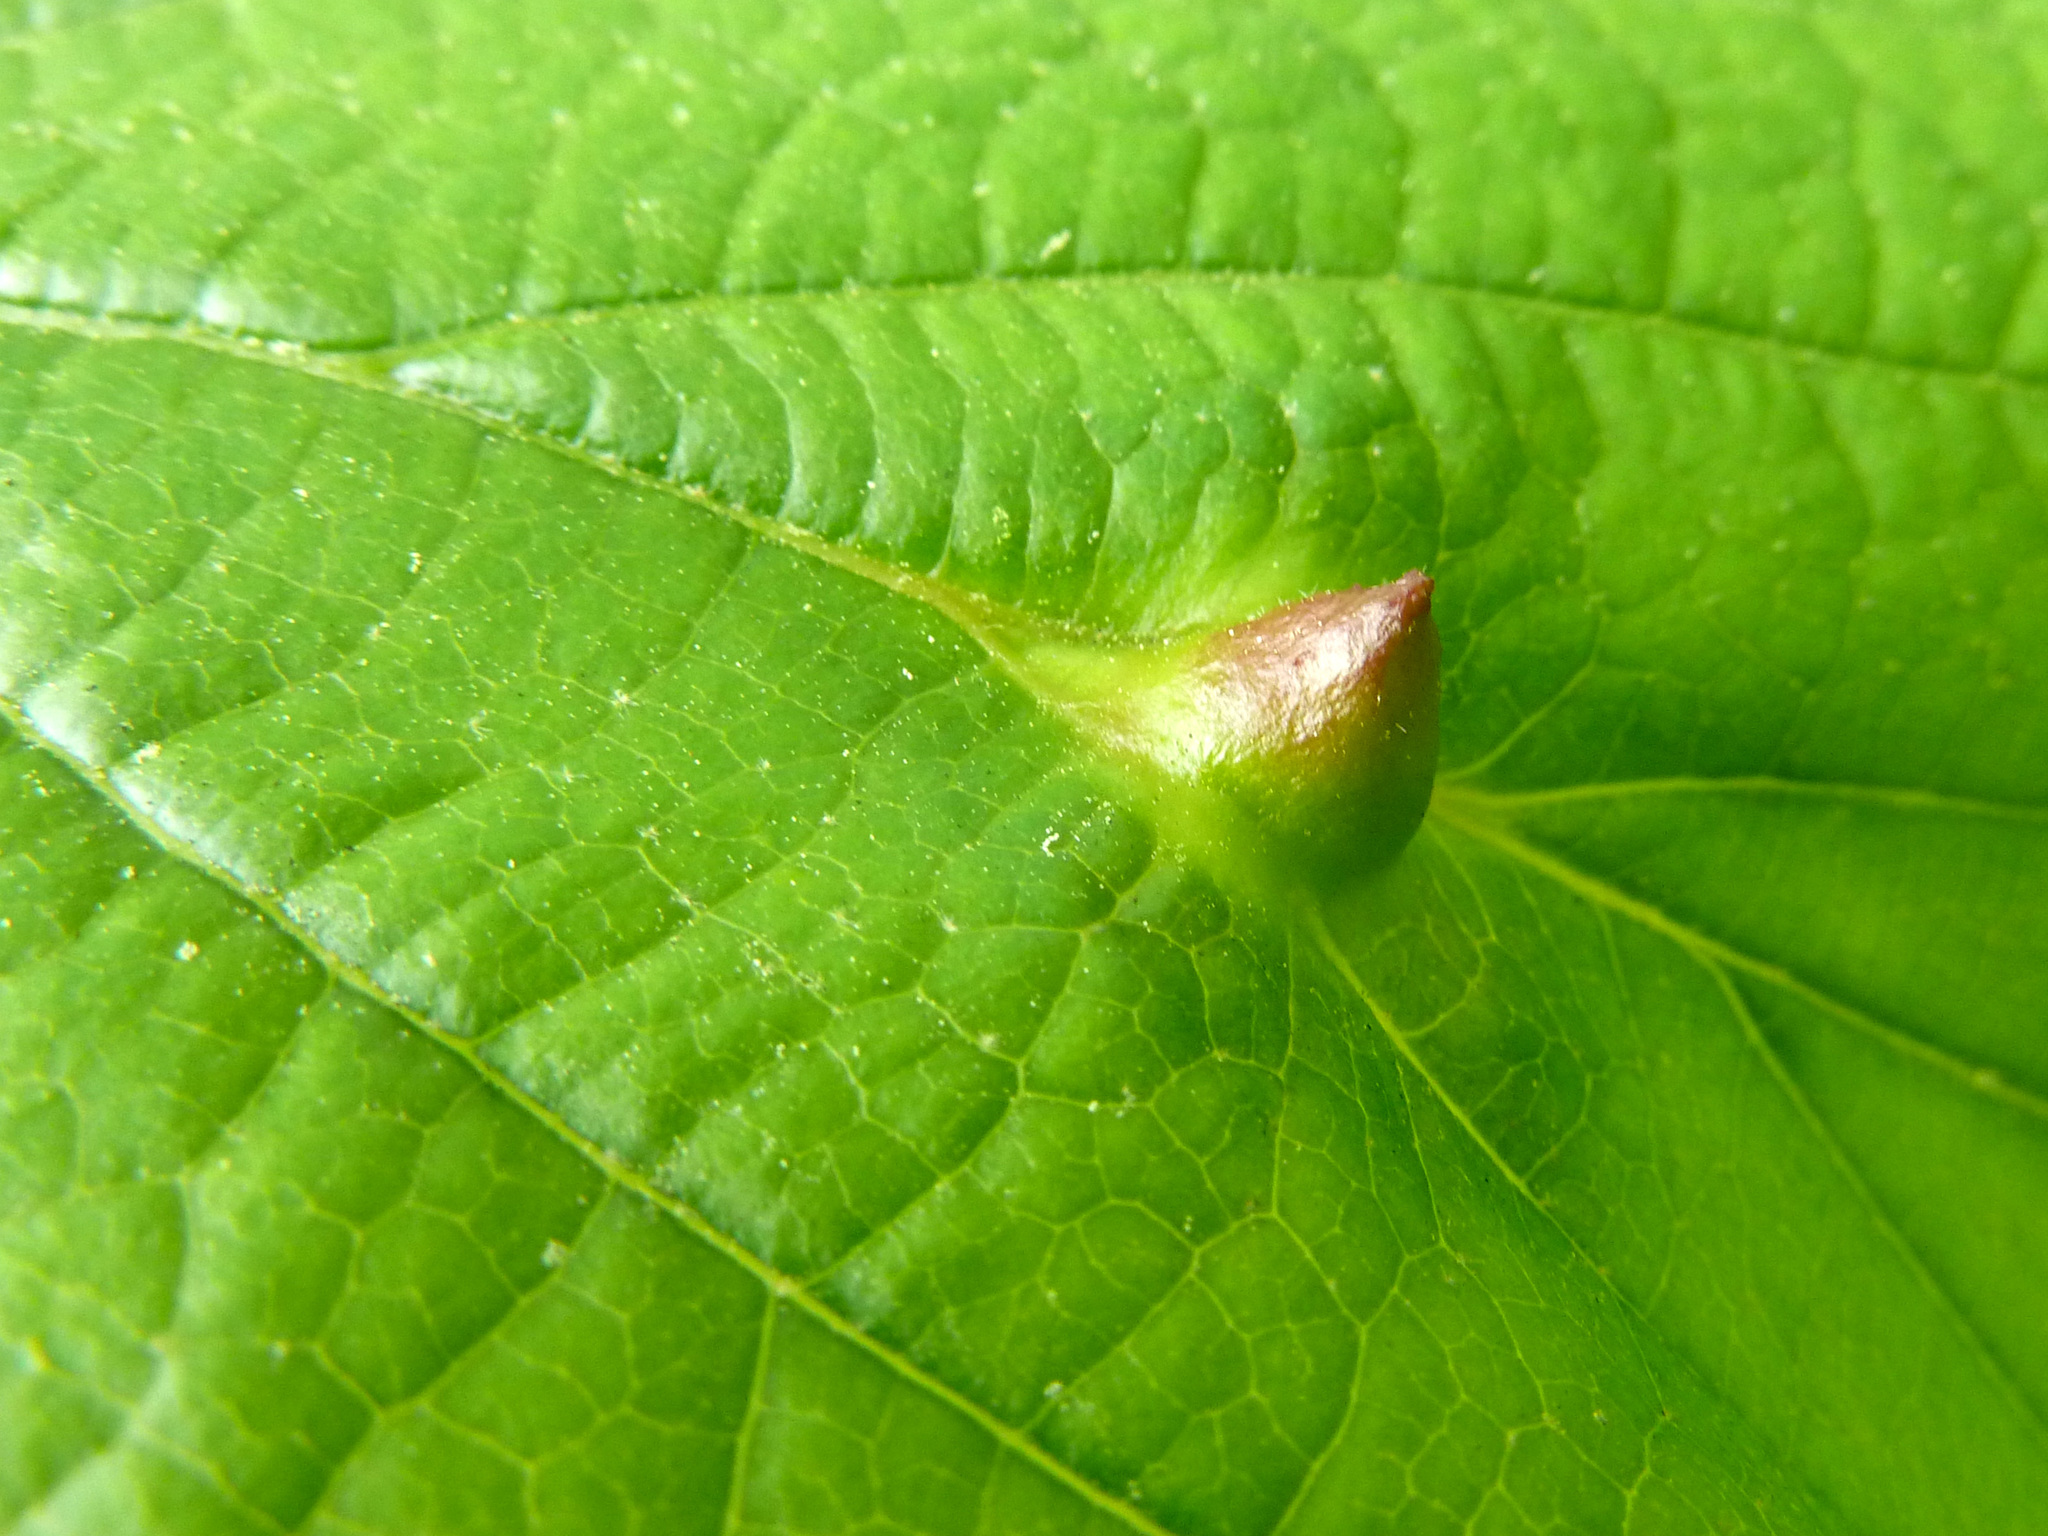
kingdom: Animalia
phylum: Arthropoda
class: Insecta
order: Hemiptera
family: Aphididae
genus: Hormaphis
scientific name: Hormaphis hamamelidis
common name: Witch-hazel cone gall aphid
